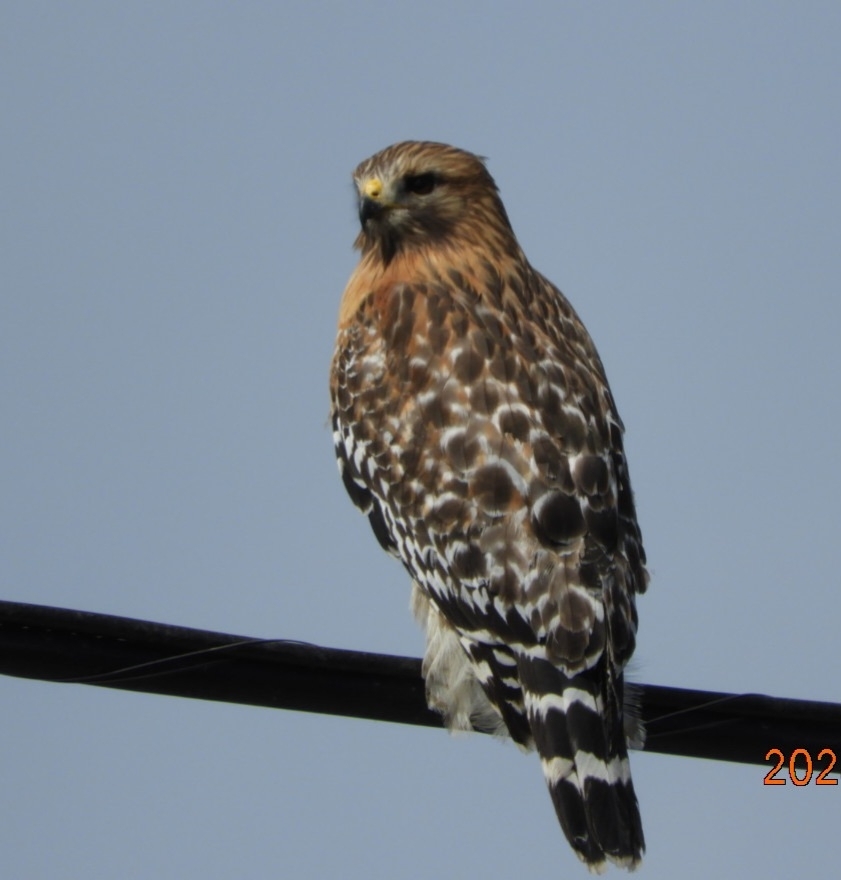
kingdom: Animalia
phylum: Chordata
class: Aves
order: Accipitriformes
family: Accipitridae
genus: Buteo
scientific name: Buteo lineatus
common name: Red-shouldered hawk
